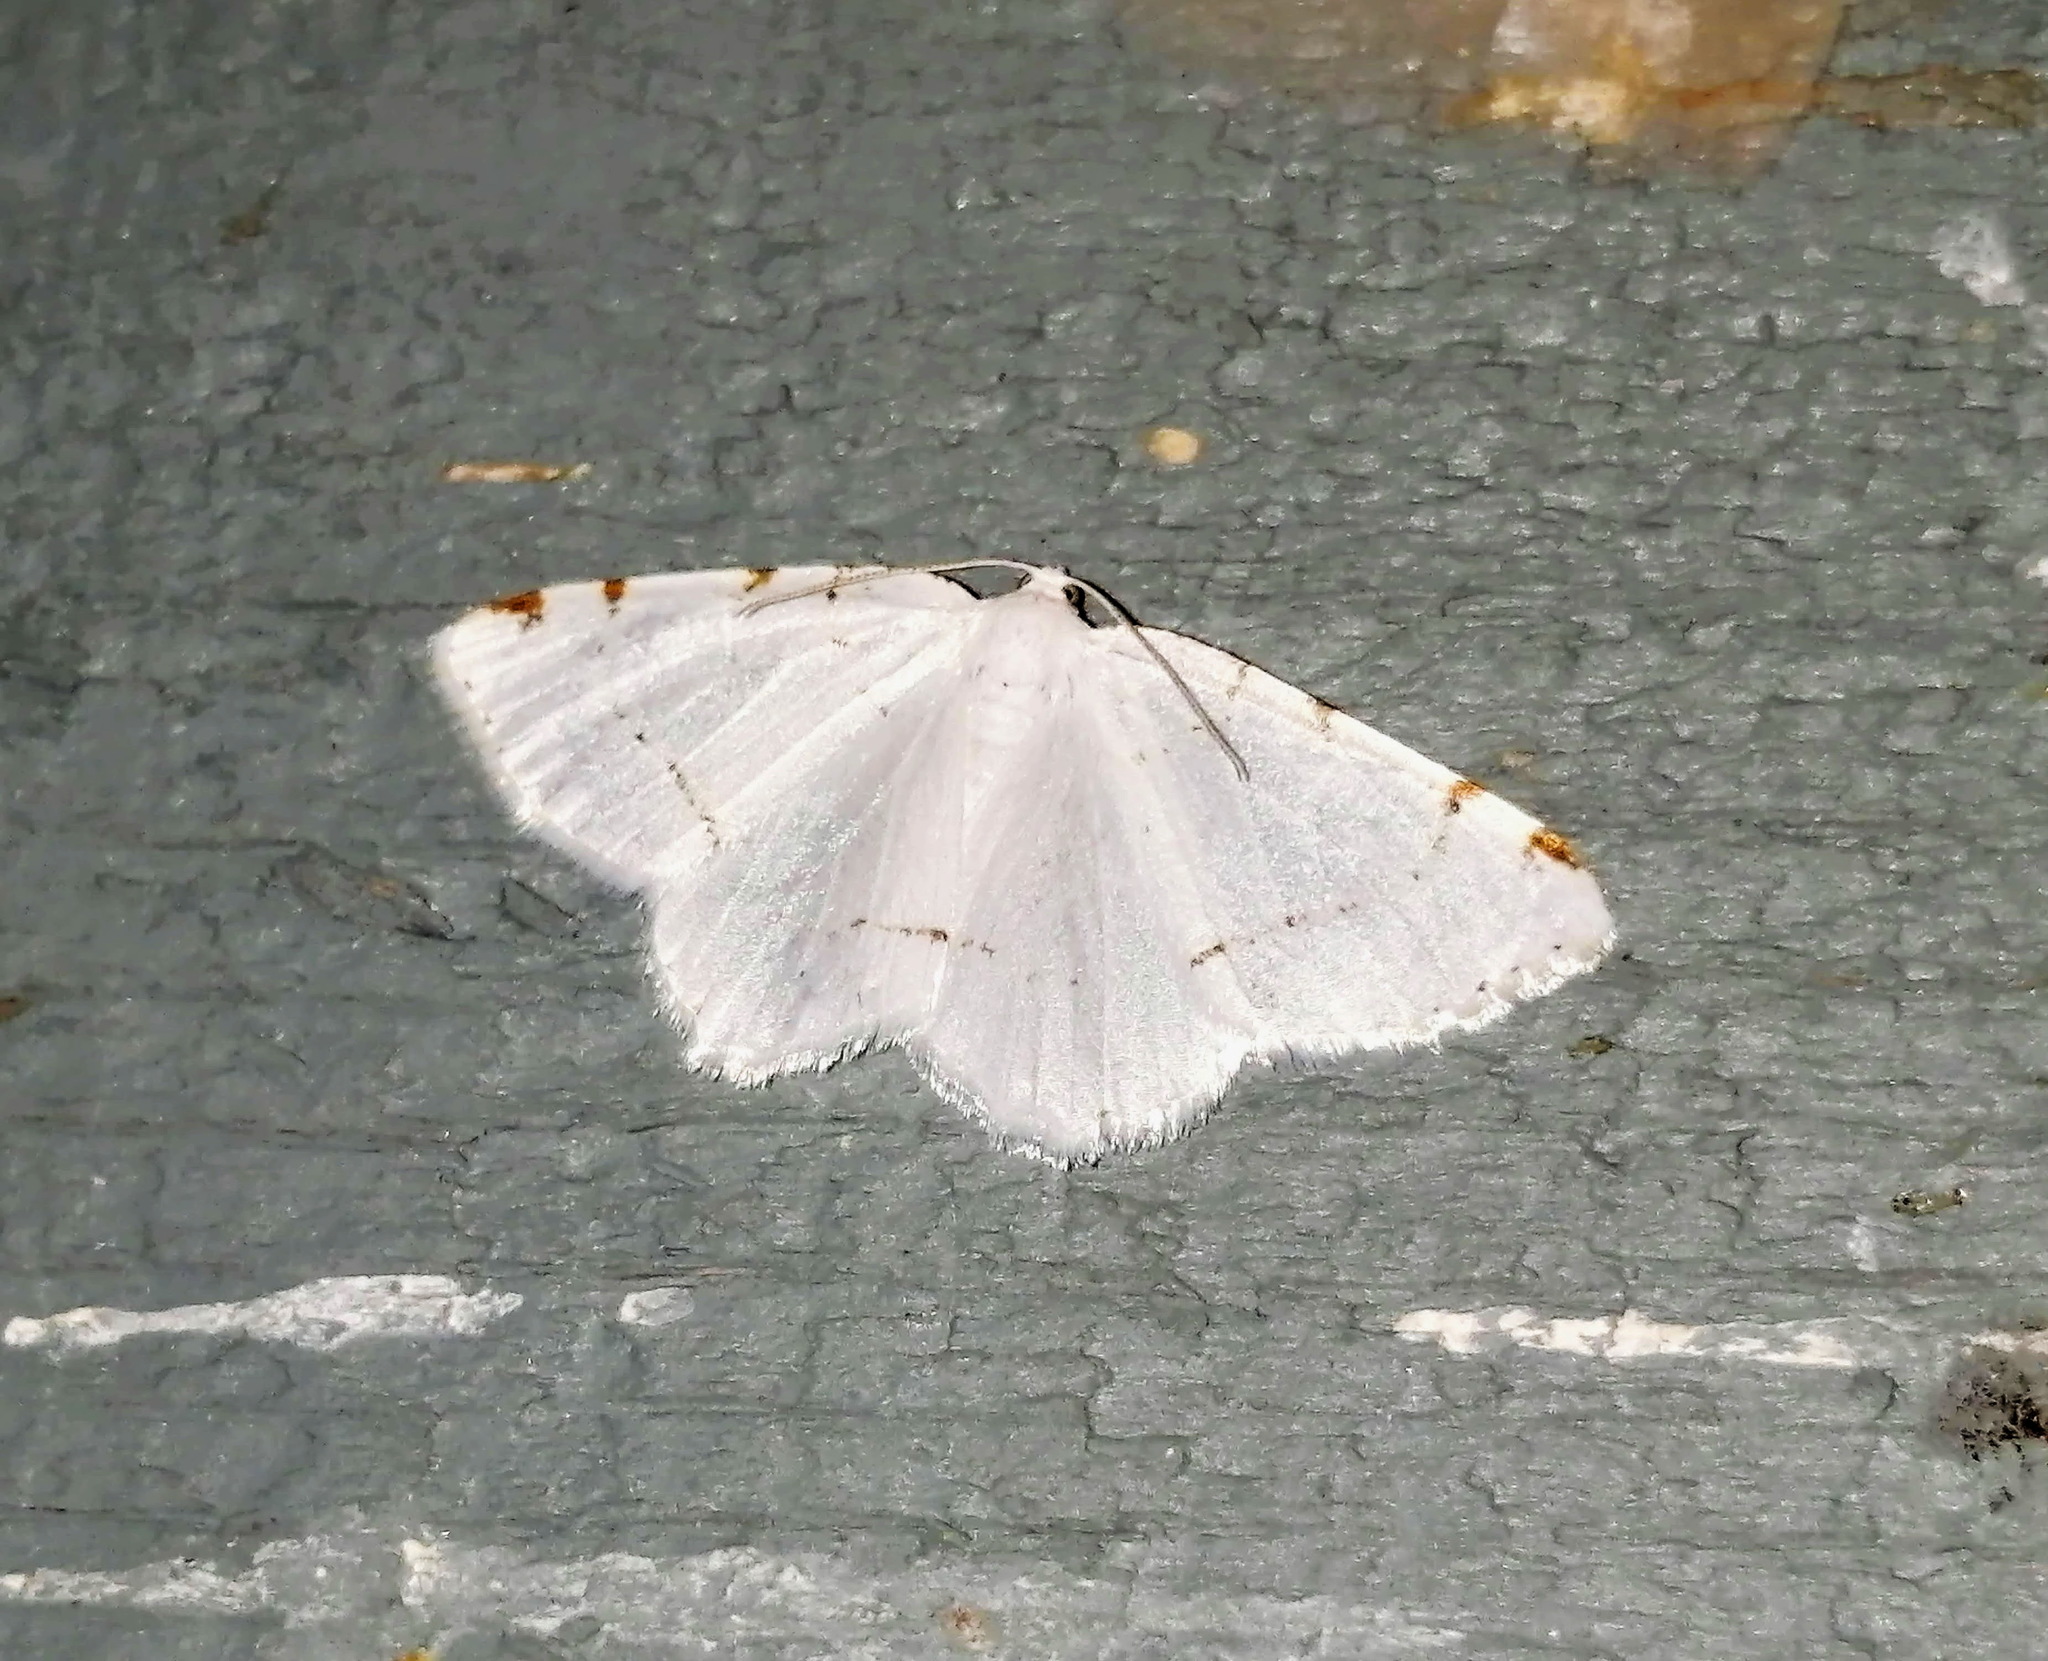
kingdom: Animalia
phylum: Arthropoda
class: Insecta
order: Lepidoptera
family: Geometridae
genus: Macaria
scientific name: Macaria pustularia
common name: Lesser maple spanworm moth
